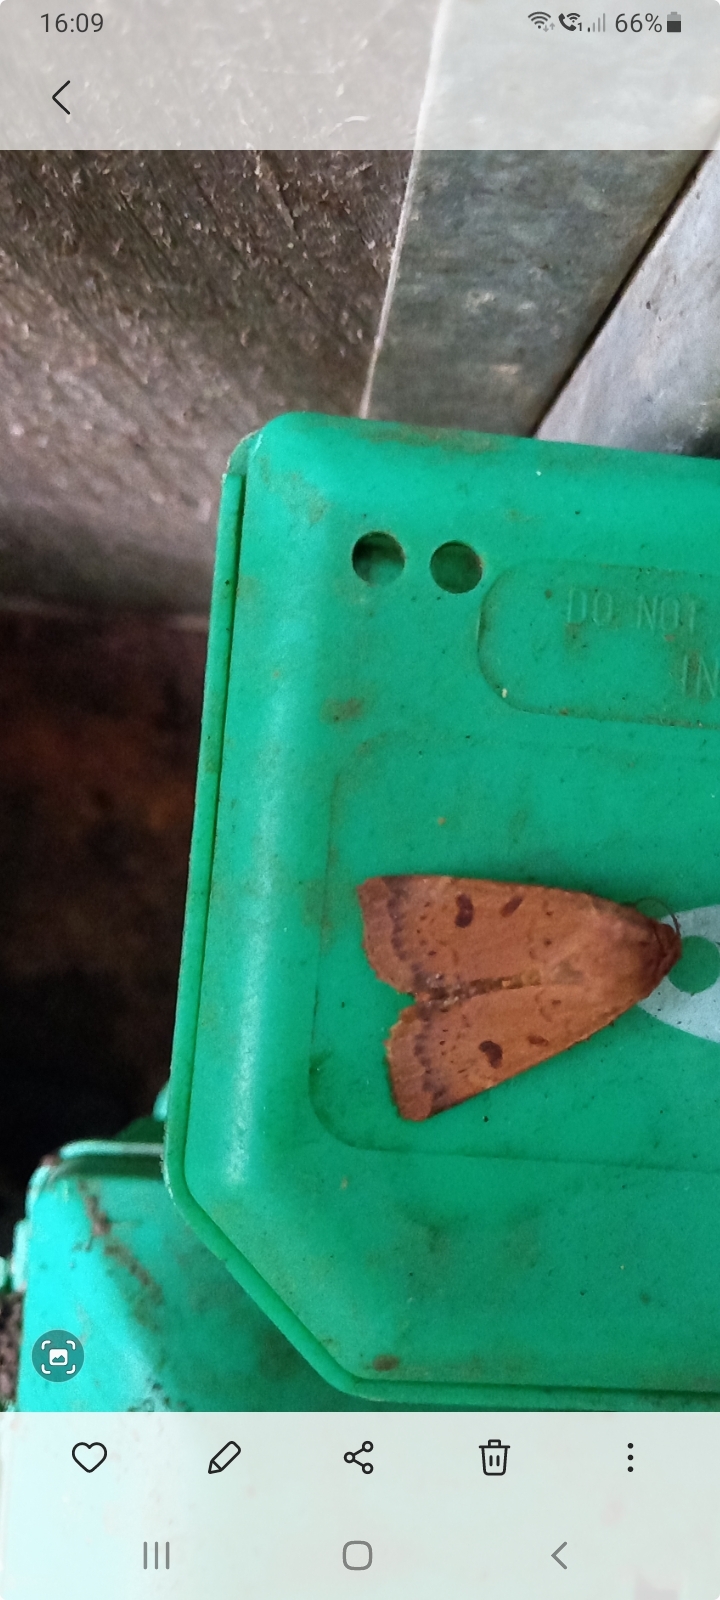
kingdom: Animalia
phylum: Arthropoda
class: Insecta
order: Lepidoptera
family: Noctuidae
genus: Noctua
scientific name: Noctua comes
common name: Lesser yellow underwing
